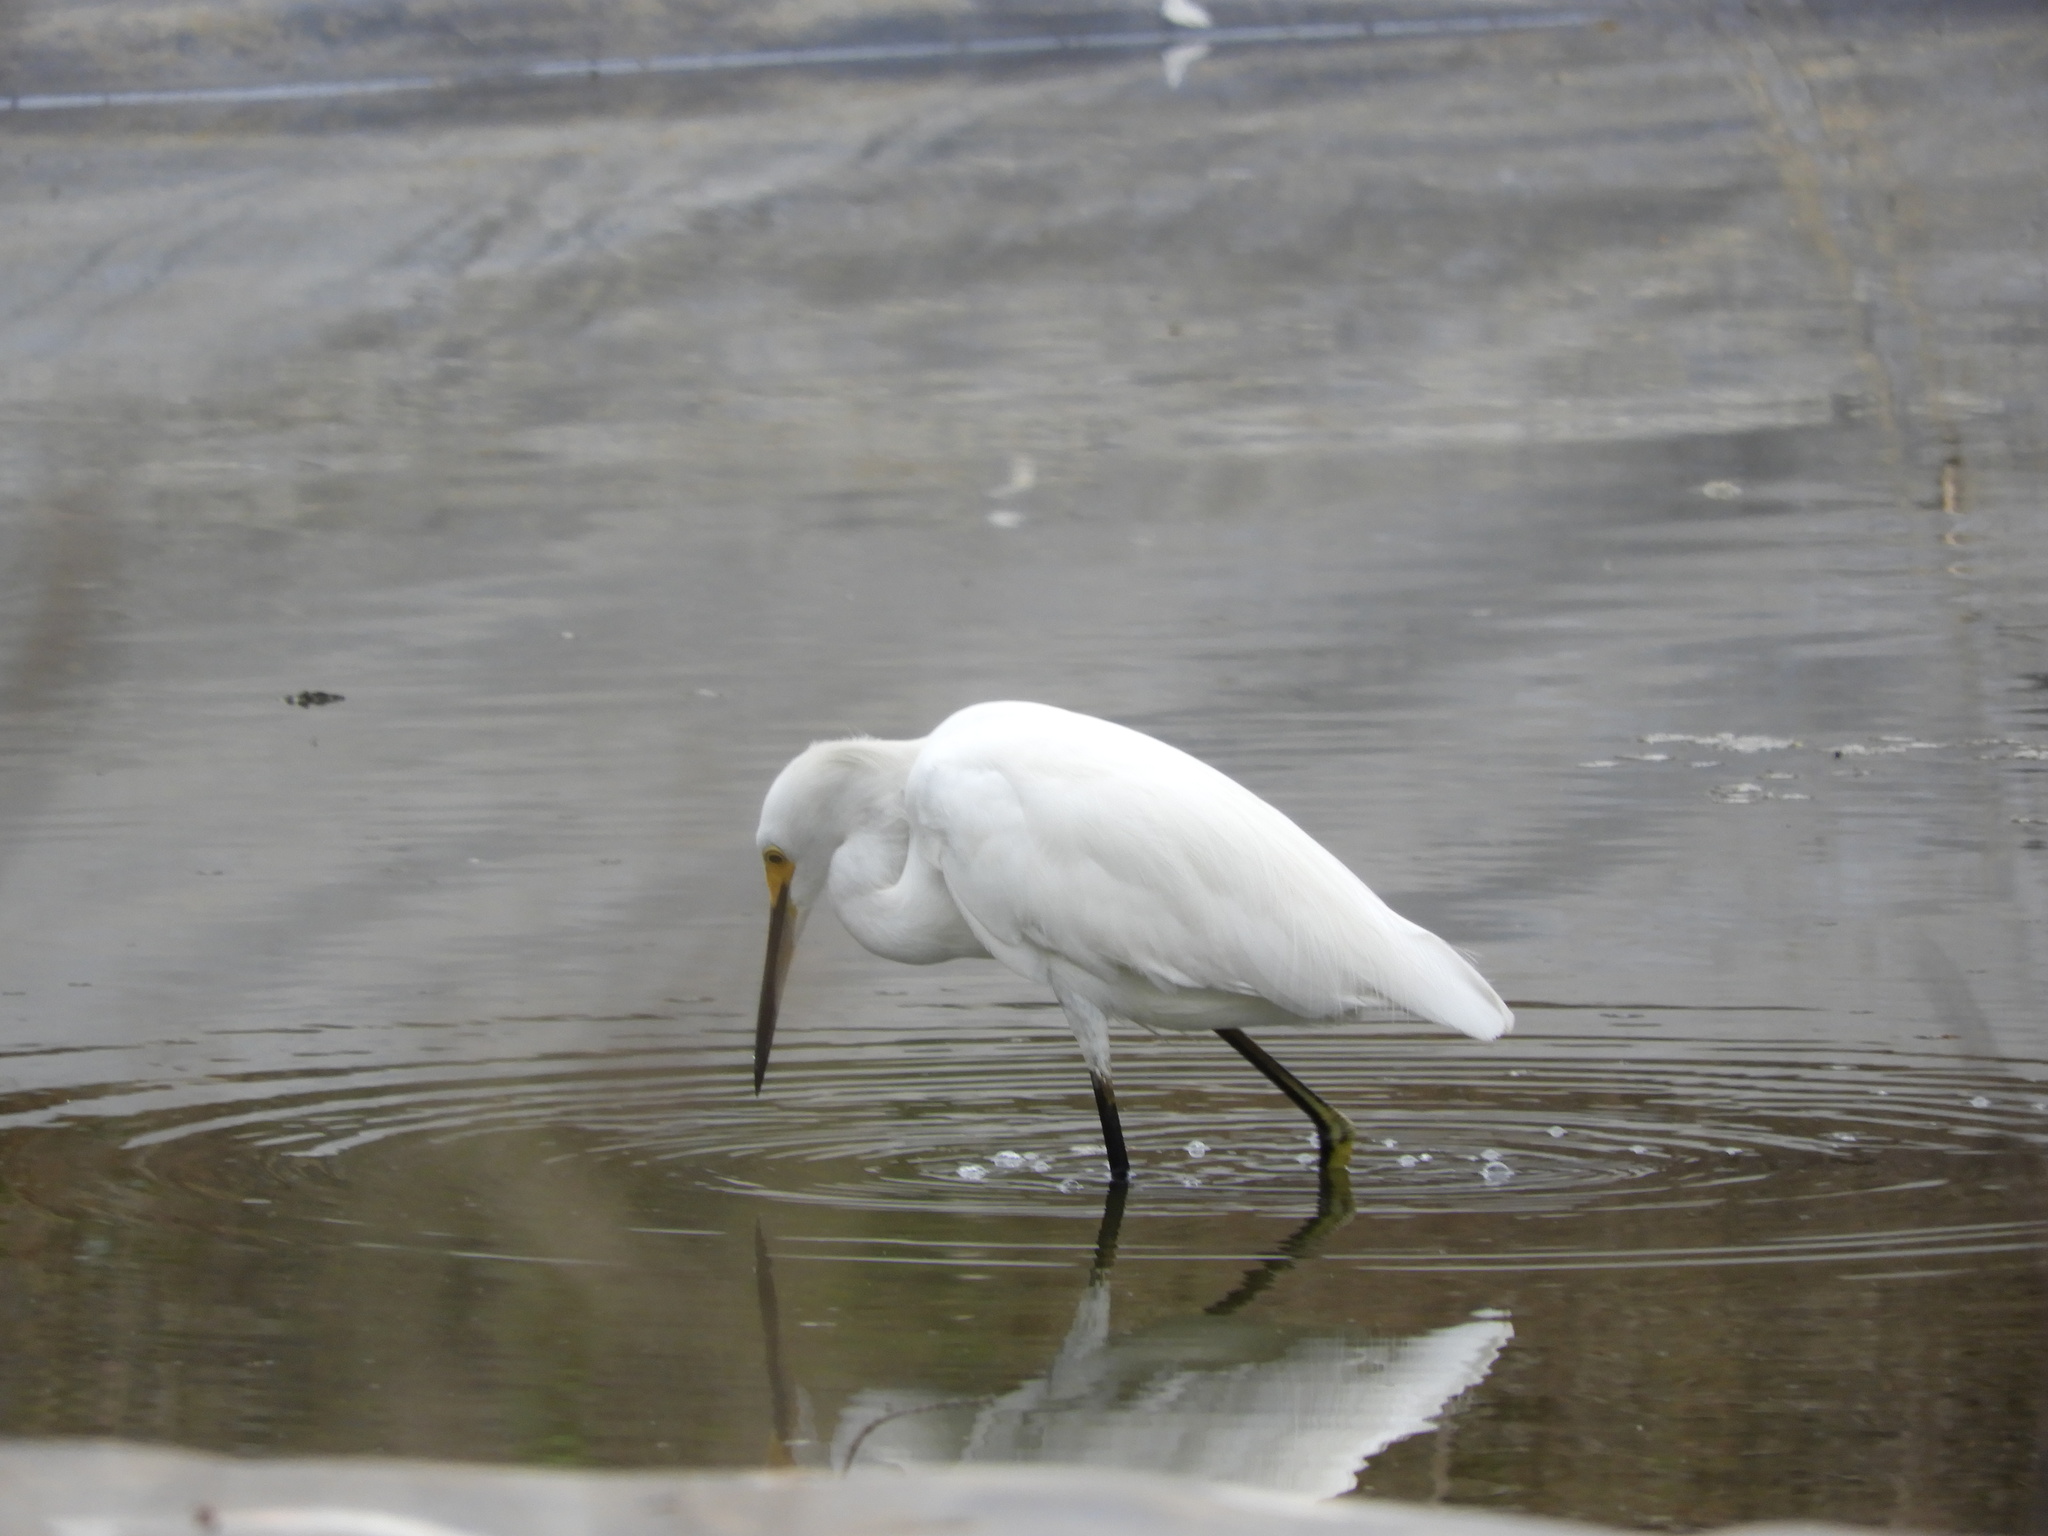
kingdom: Animalia
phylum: Chordata
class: Aves
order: Pelecaniformes
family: Ardeidae
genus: Egretta
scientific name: Egretta thula
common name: Snowy egret
